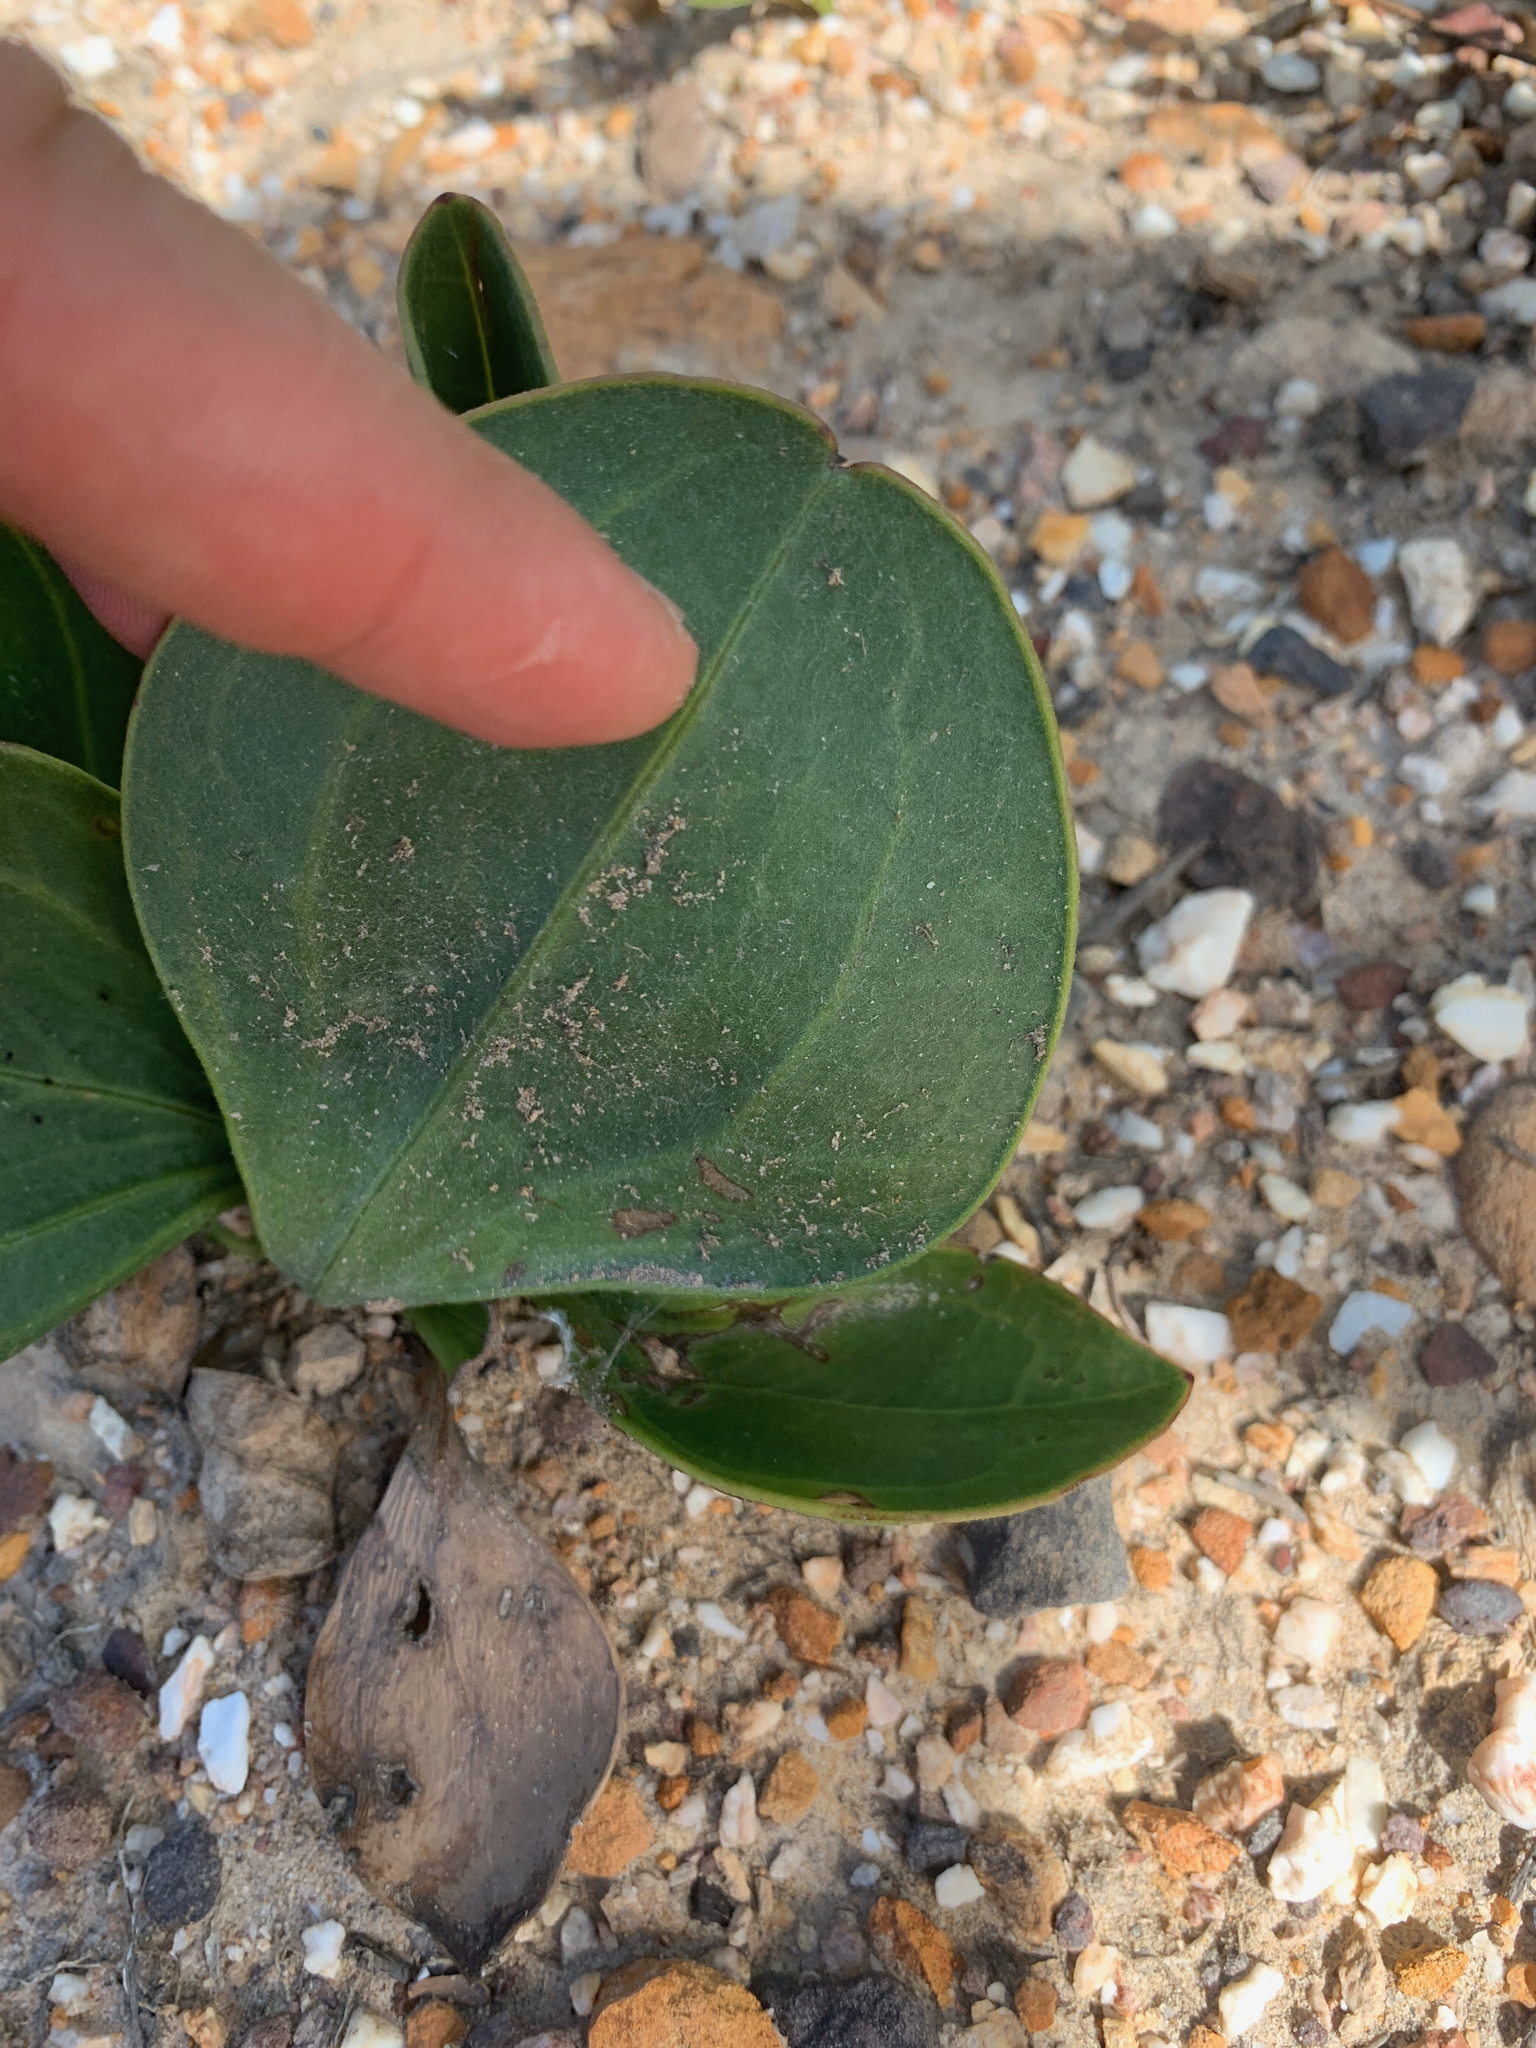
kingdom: Plantae
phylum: Tracheophyta
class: Magnoliopsida
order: Asterales
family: Asteraceae
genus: Mairia
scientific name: Mairia coriacea
